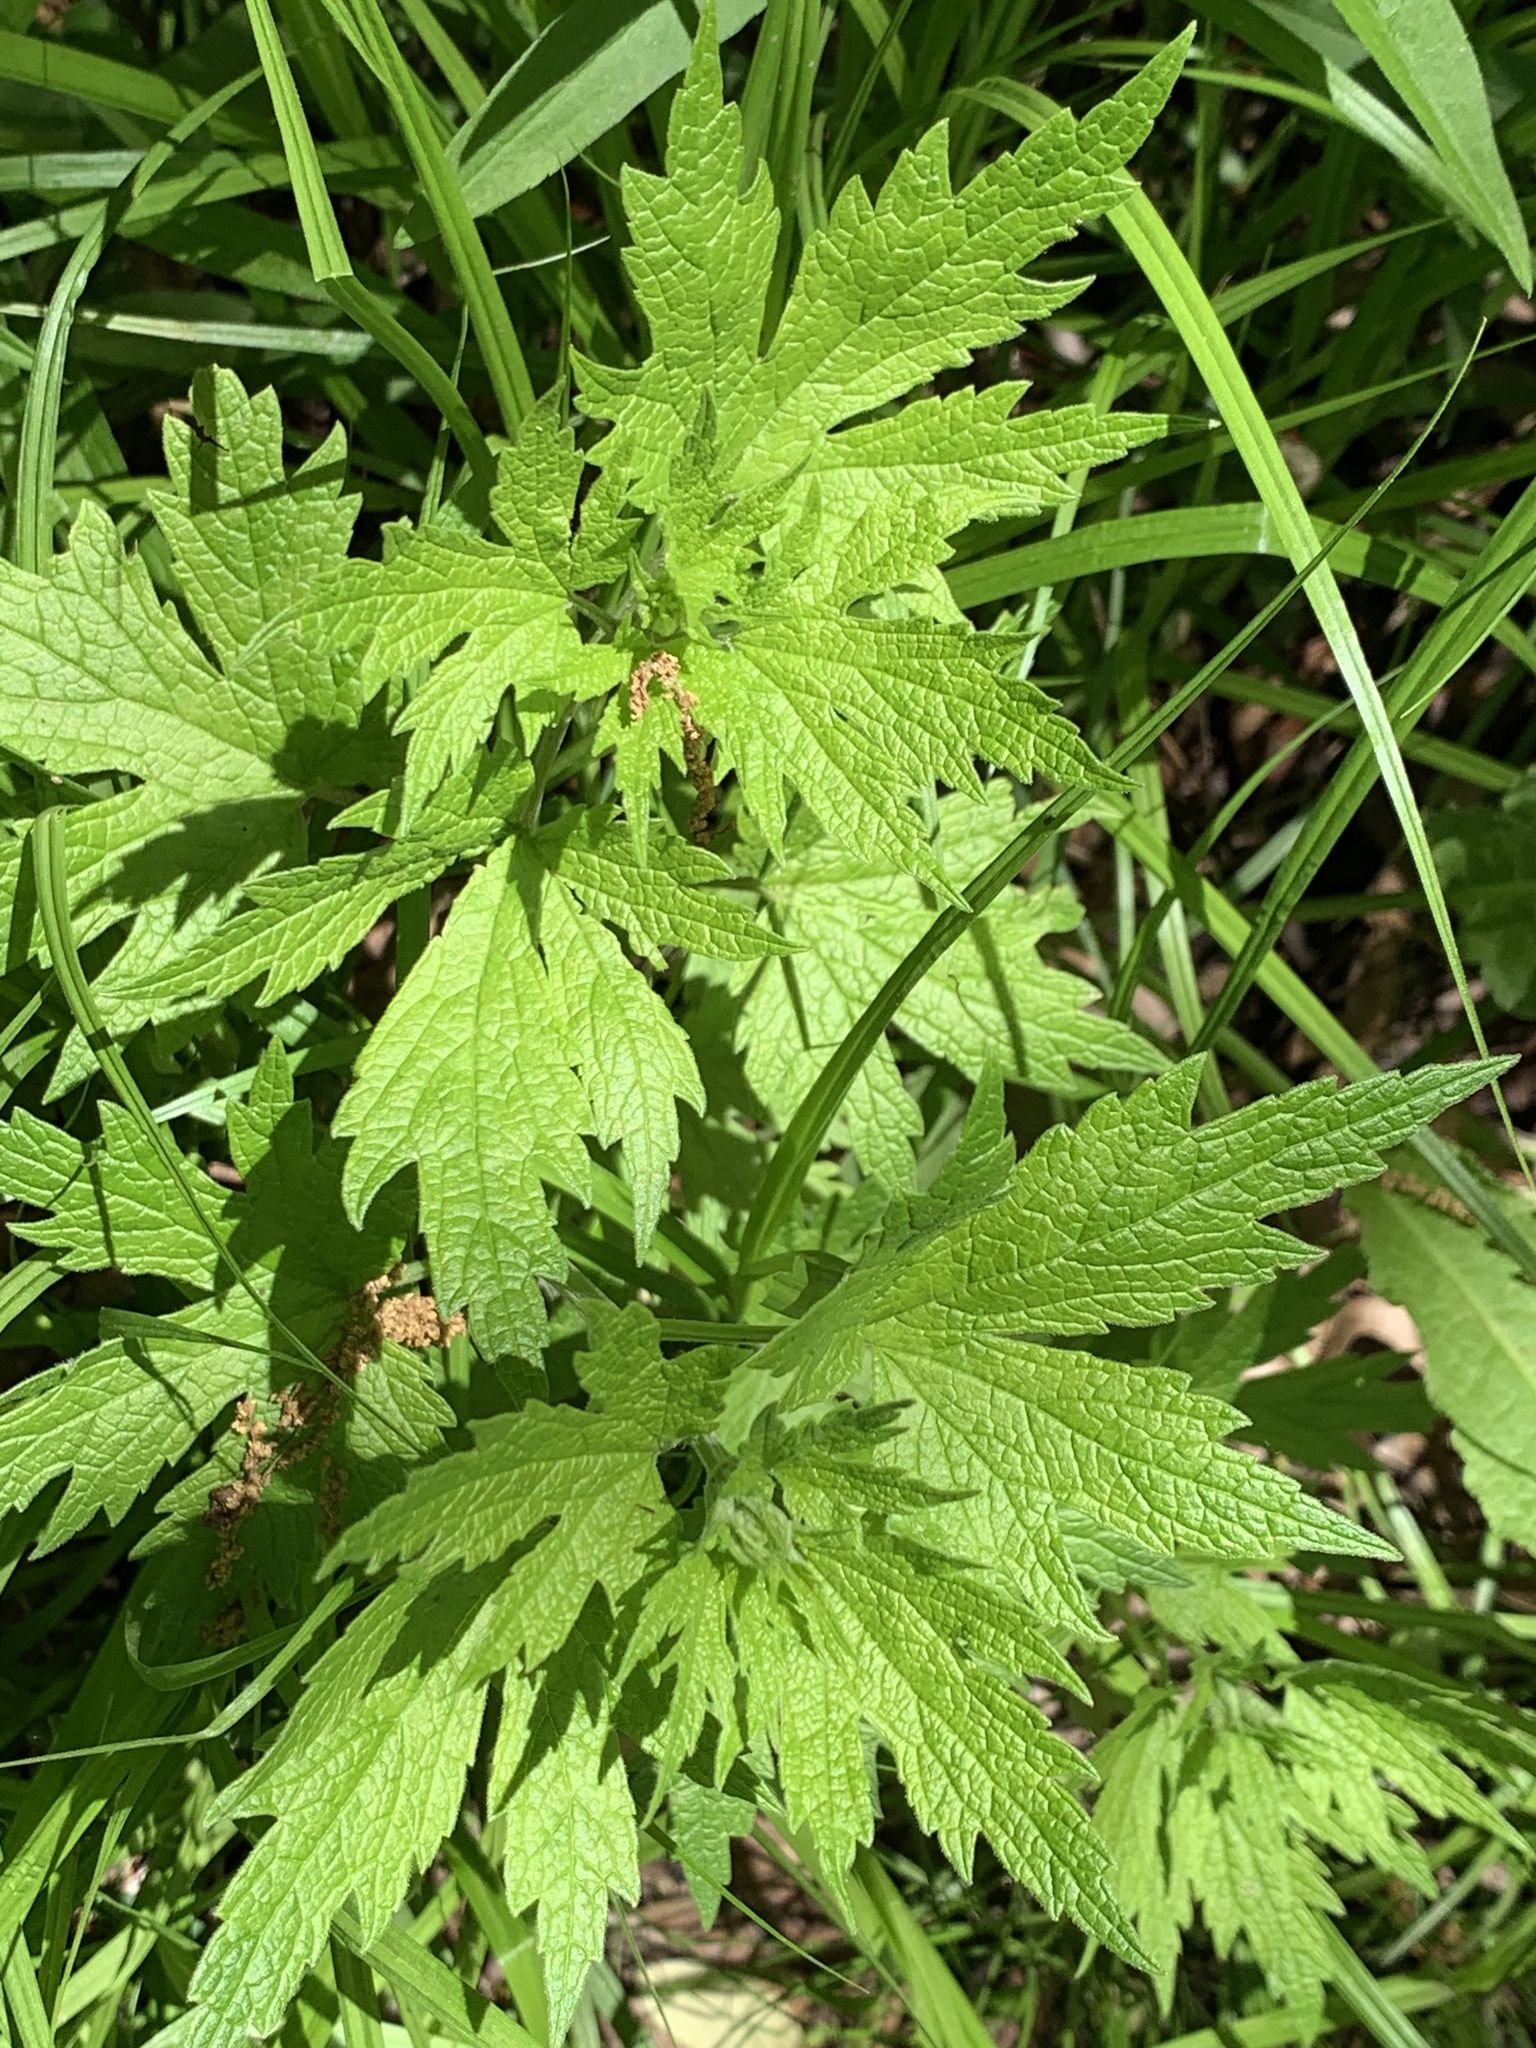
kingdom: Plantae
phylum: Tracheophyta
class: Magnoliopsida
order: Lamiales
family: Lamiaceae
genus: Leonurus
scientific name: Leonurus cardiaca
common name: Motherwort
